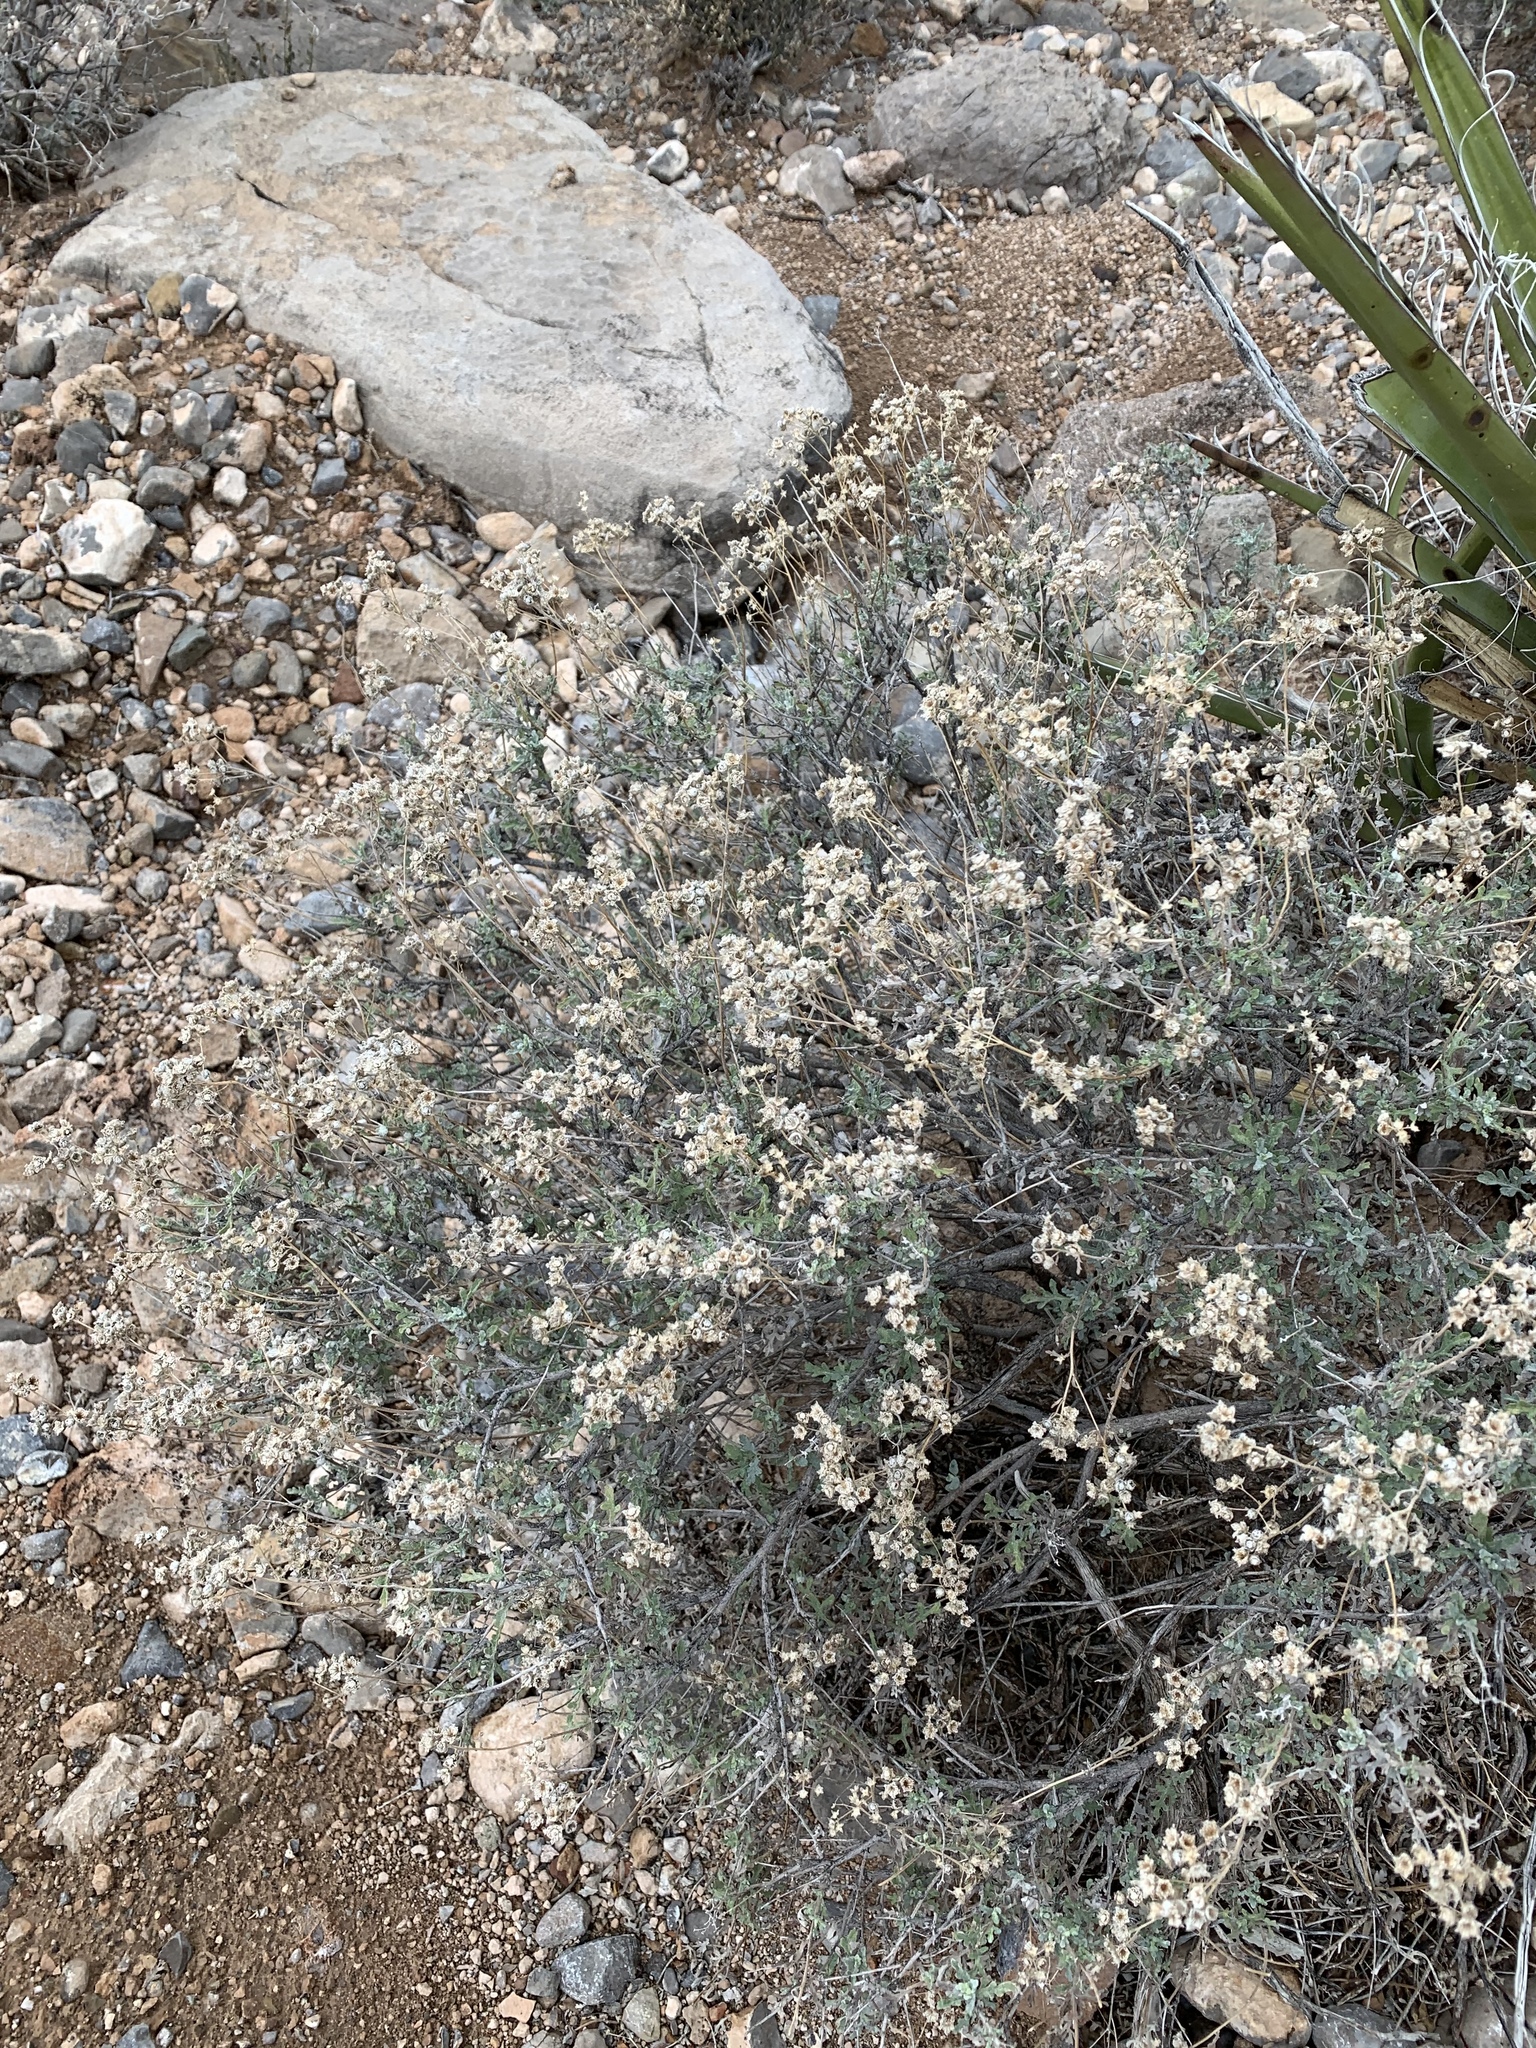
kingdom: Plantae
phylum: Tracheophyta
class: Magnoliopsida
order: Asterales
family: Asteraceae
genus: Parthenium
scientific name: Parthenium incanum
